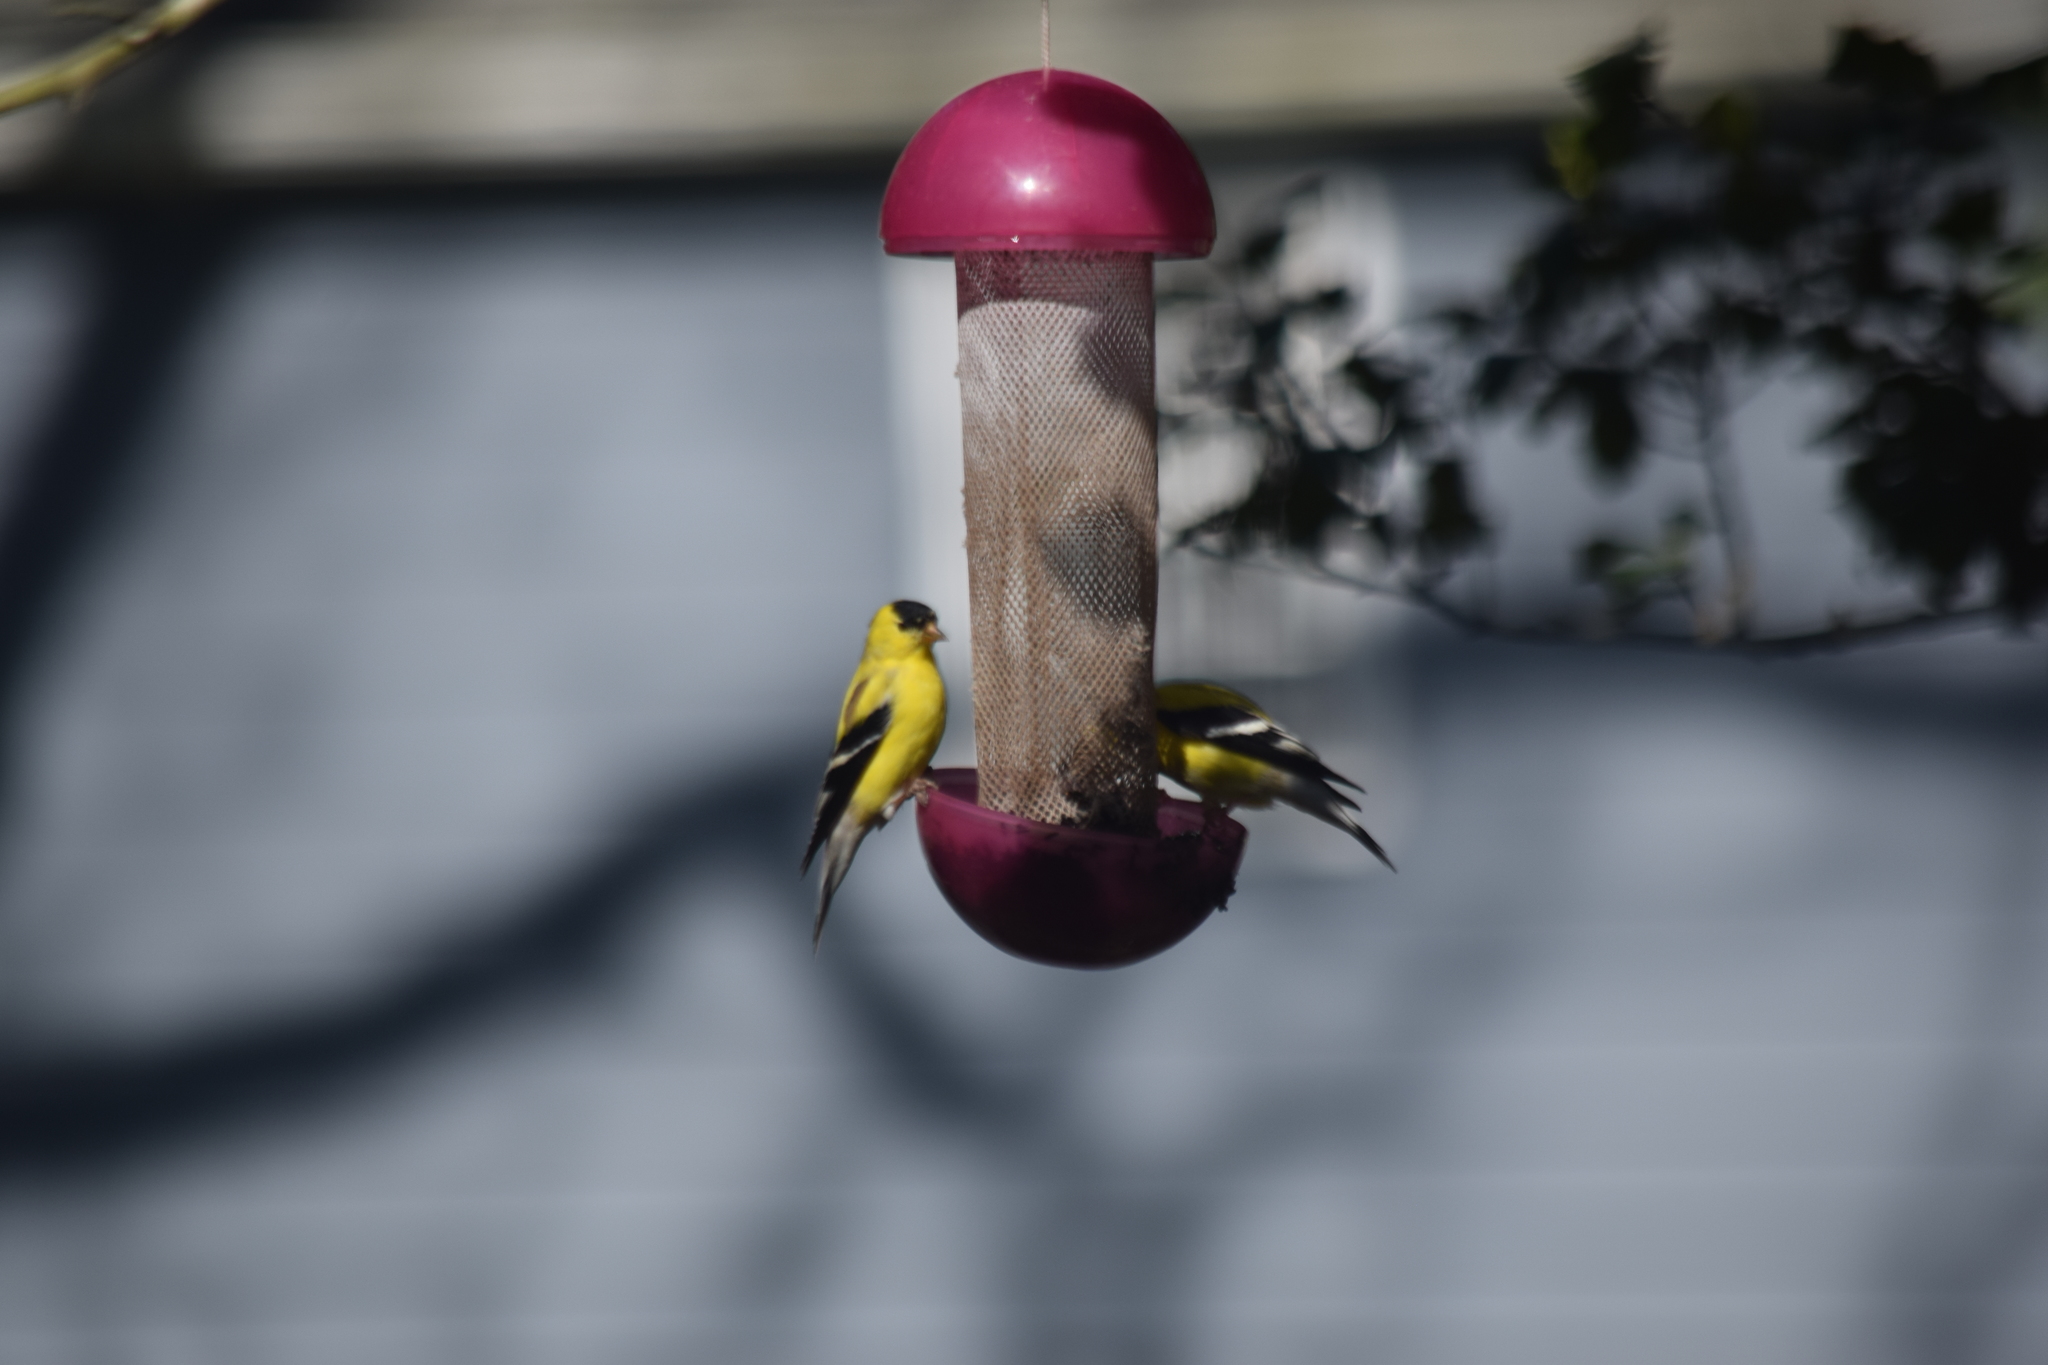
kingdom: Animalia
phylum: Chordata
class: Aves
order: Passeriformes
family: Fringillidae
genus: Spinus
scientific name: Spinus tristis
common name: American goldfinch
